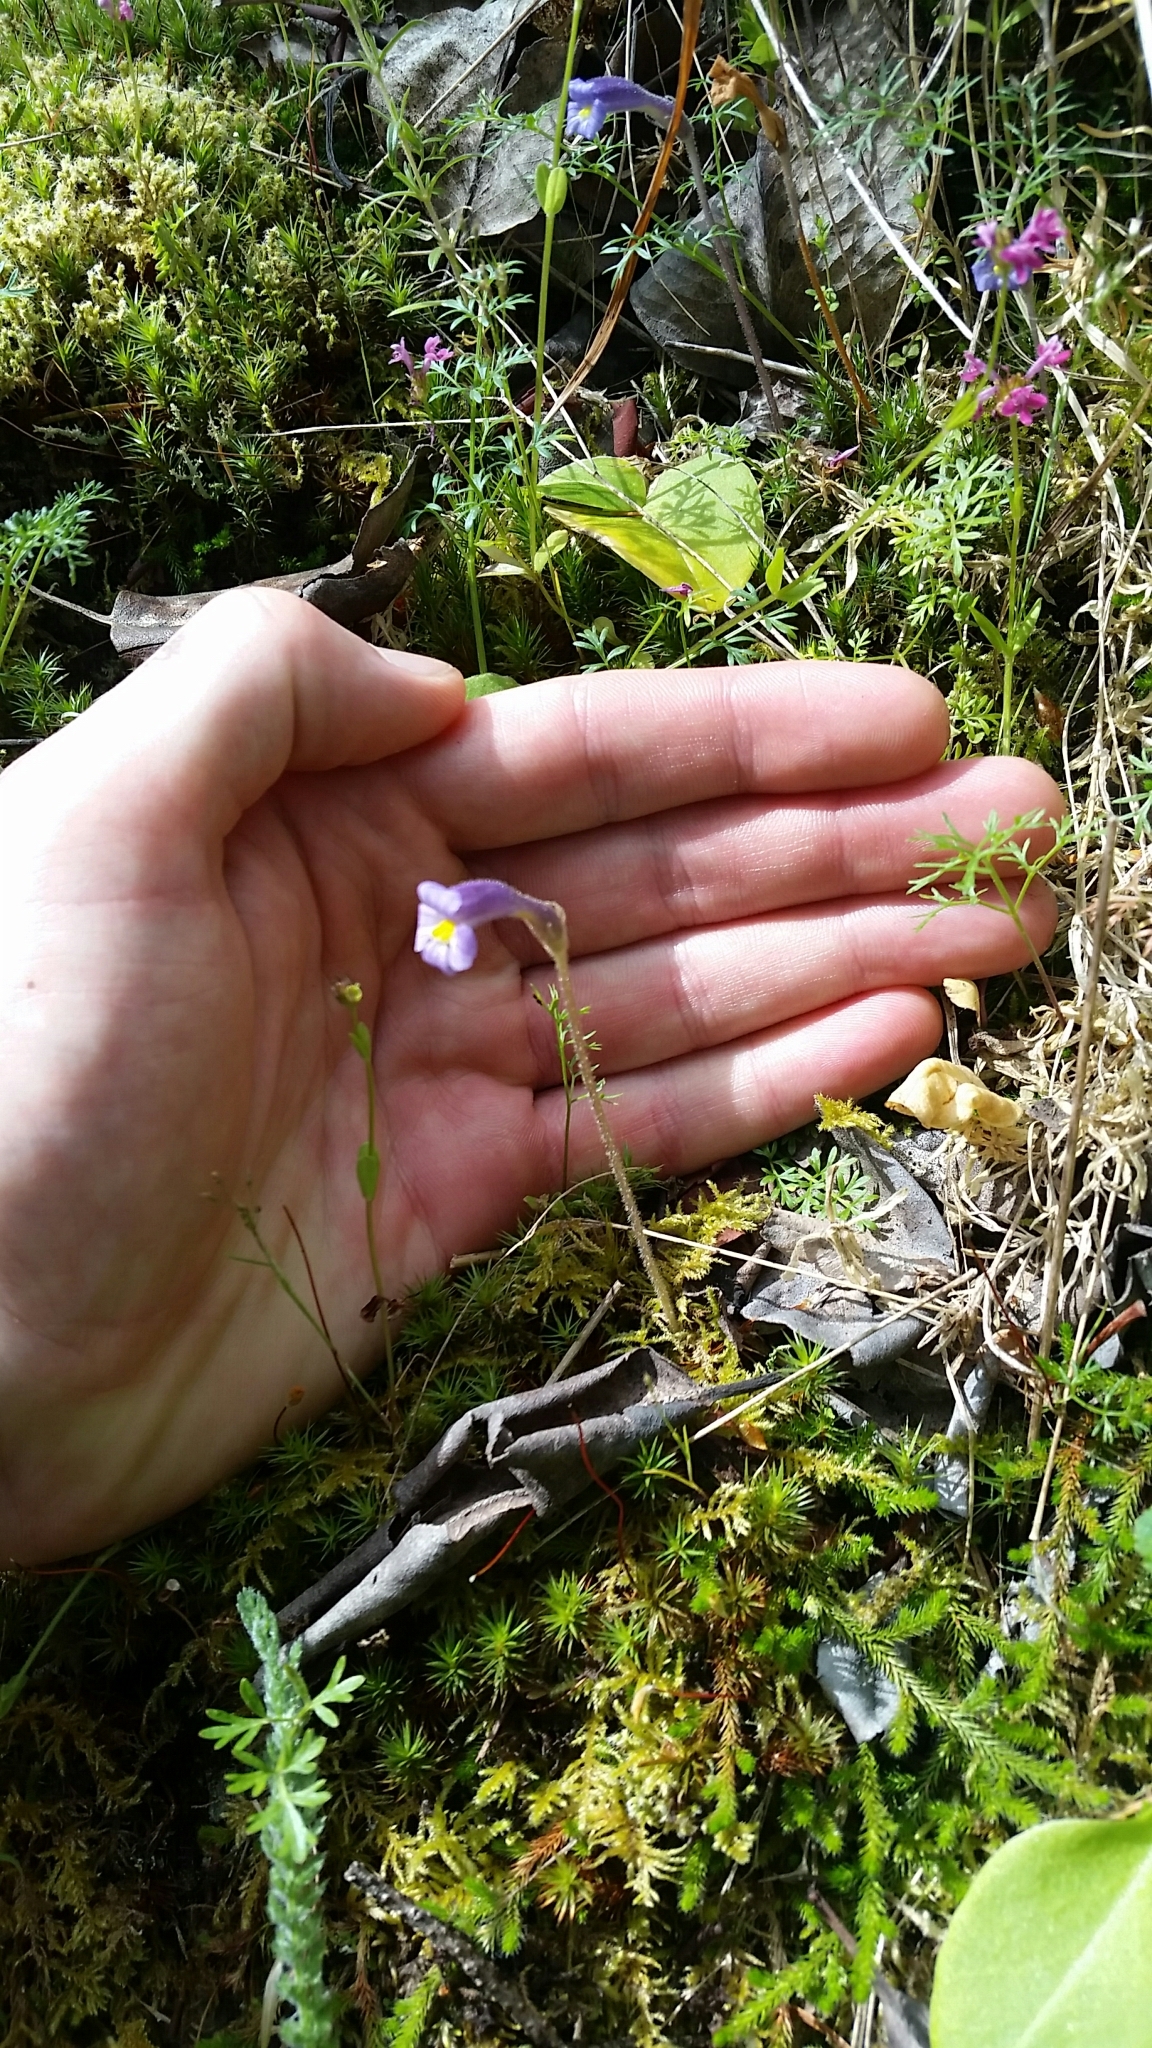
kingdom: Plantae
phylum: Tracheophyta
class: Magnoliopsida
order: Lamiales
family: Orobanchaceae
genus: Aphyllon
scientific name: Aphyllon uniflorum
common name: One-flowered broomrape
